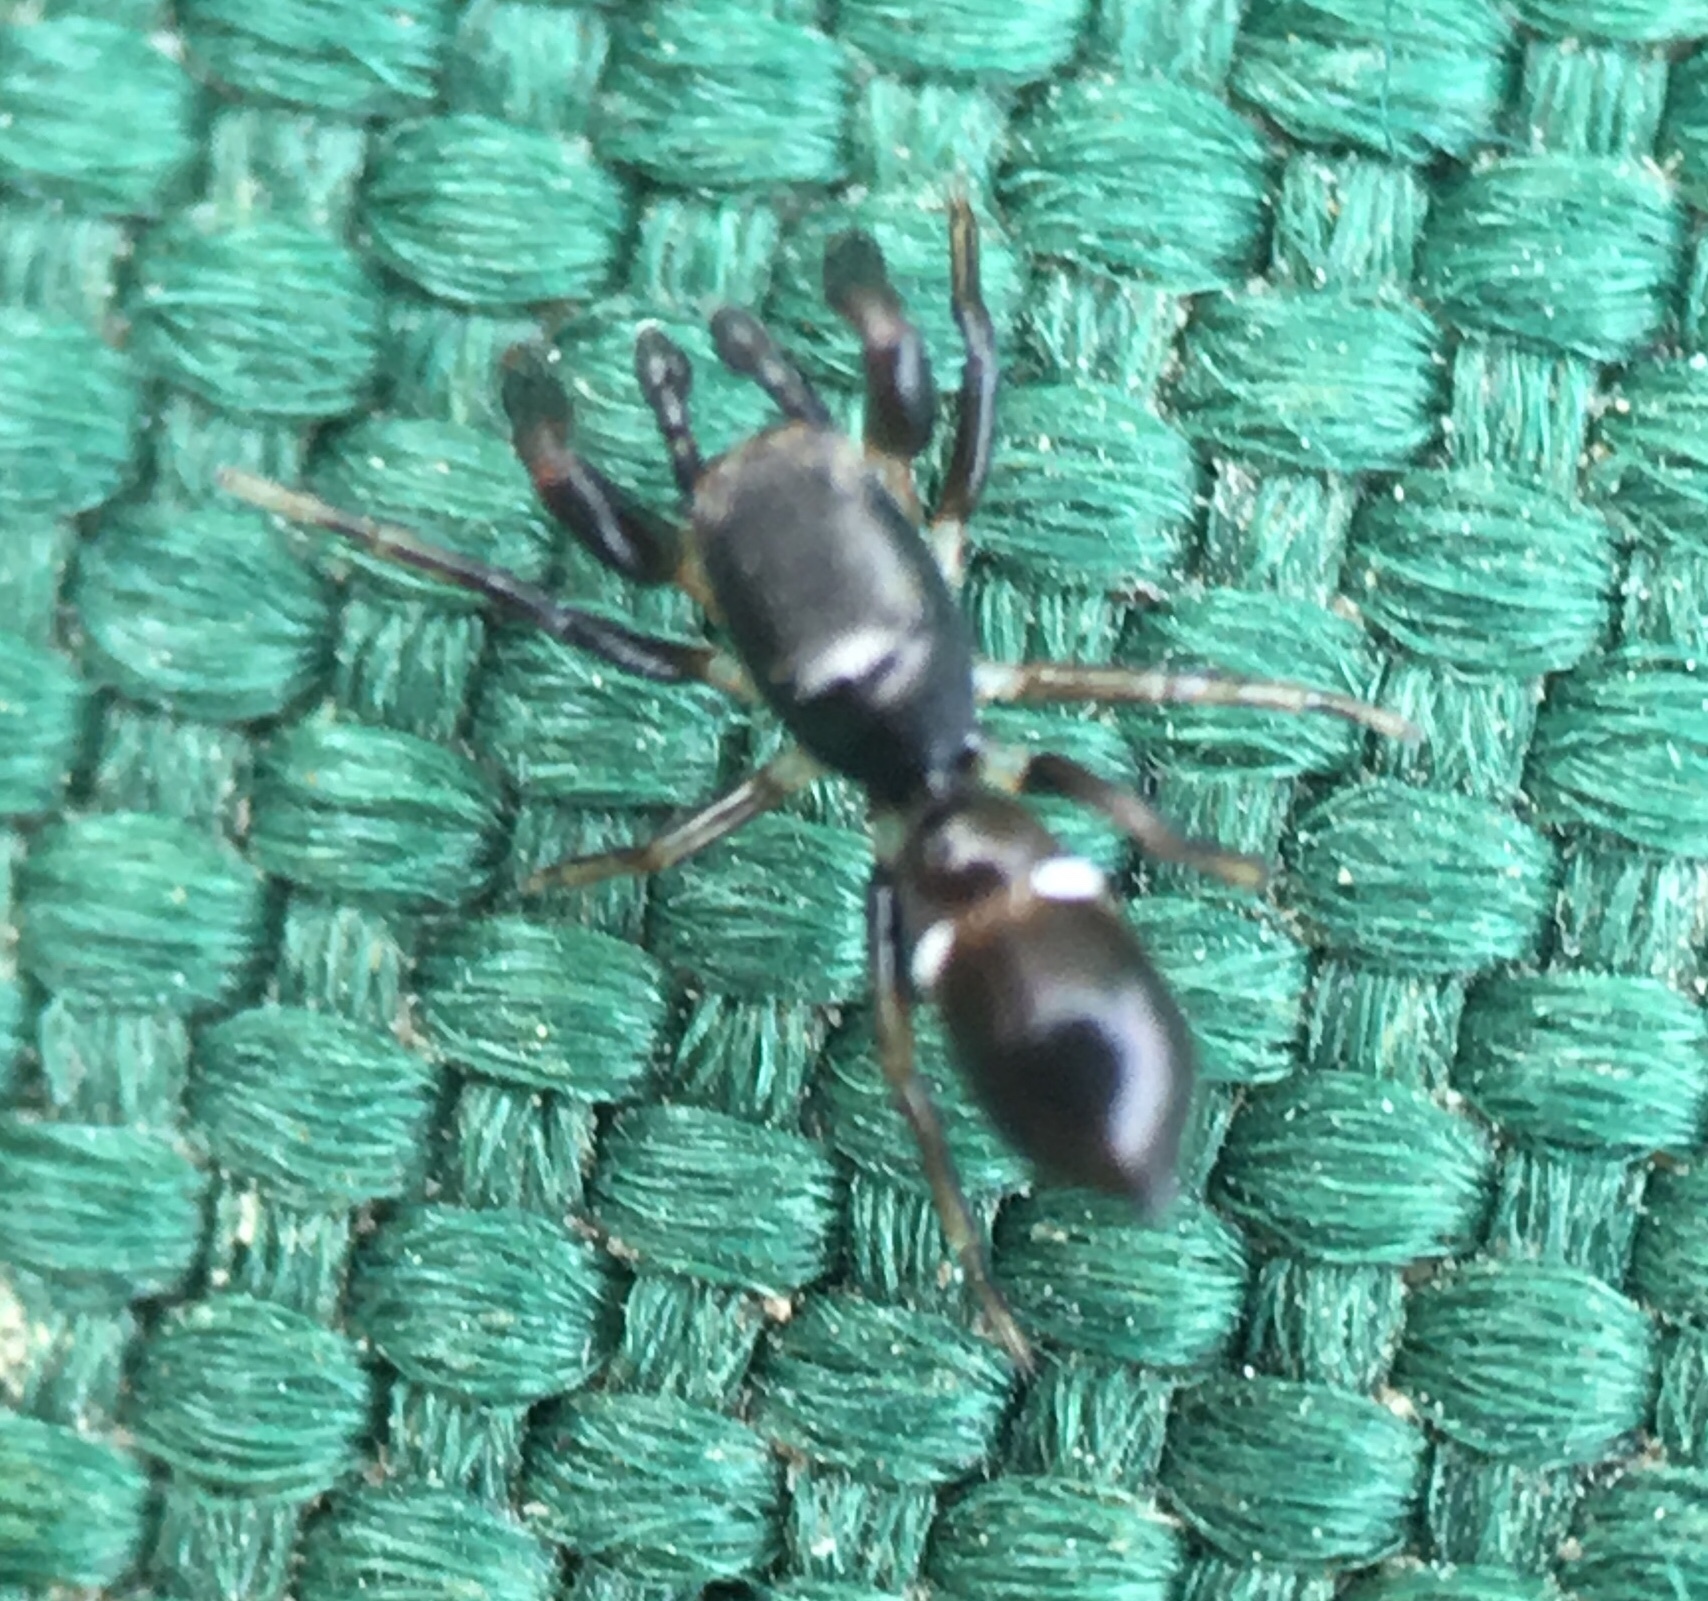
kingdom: Animalia
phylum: Arthropoda
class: Arachnida
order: Araneae
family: Salticidae
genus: Synageles
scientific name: Synageles
